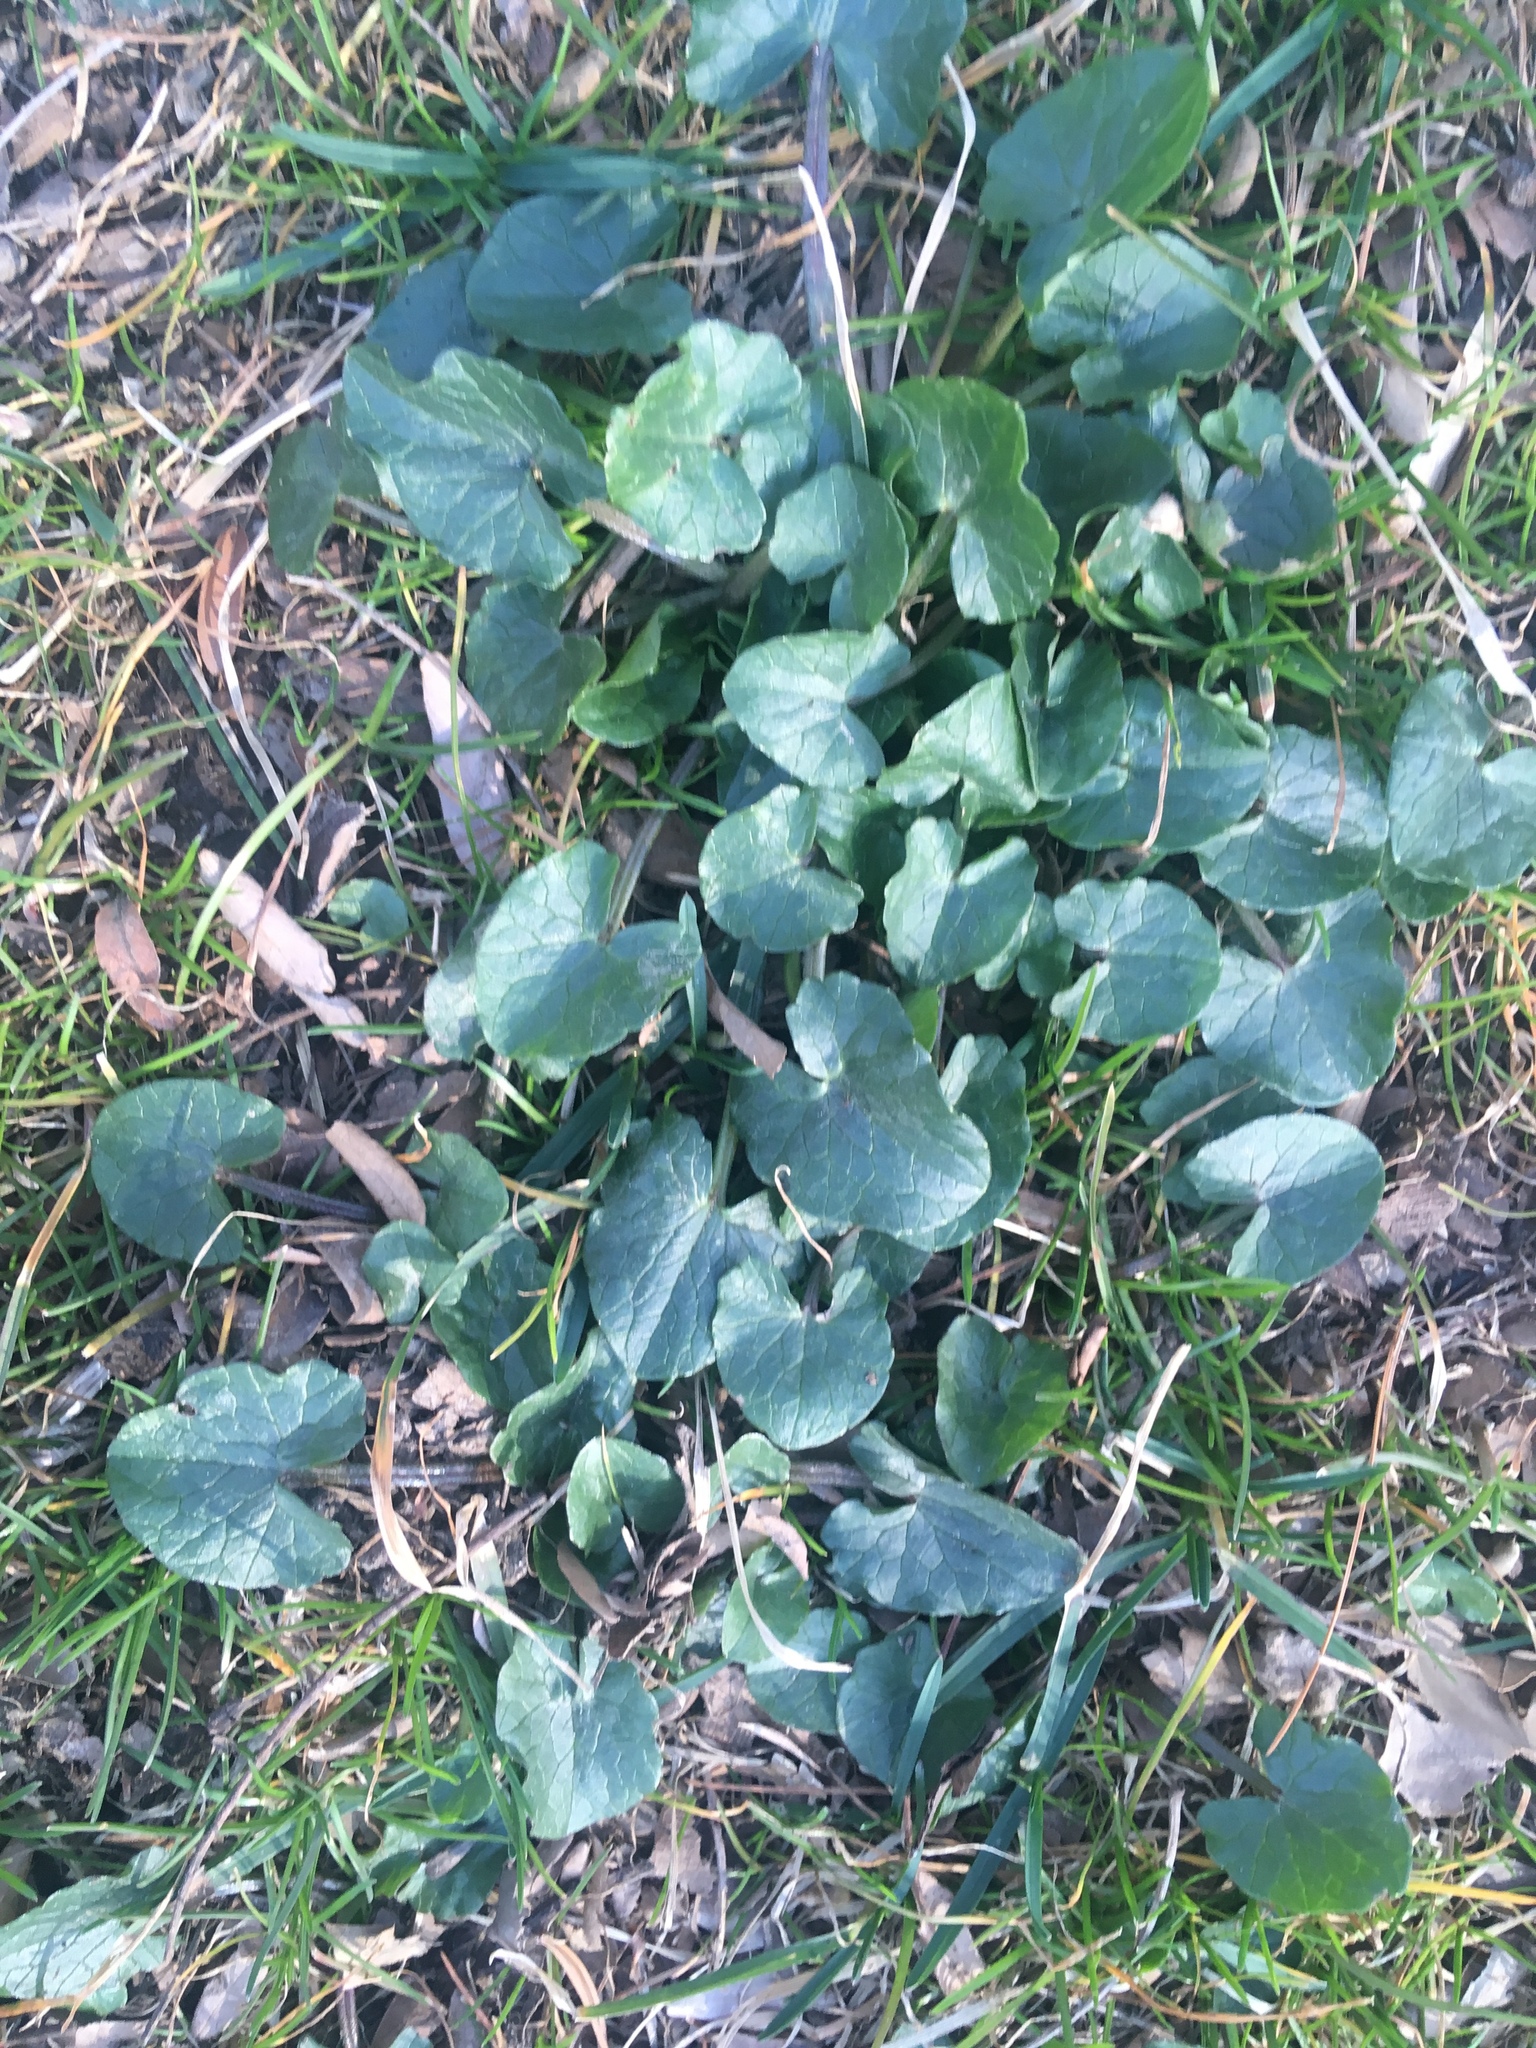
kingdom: Plantae
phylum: Tracheophyta
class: Magnoliopsida
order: Ranunculales
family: Ranunculaceae
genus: Ficaria
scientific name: Ficaria verna
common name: Lesser celandine
